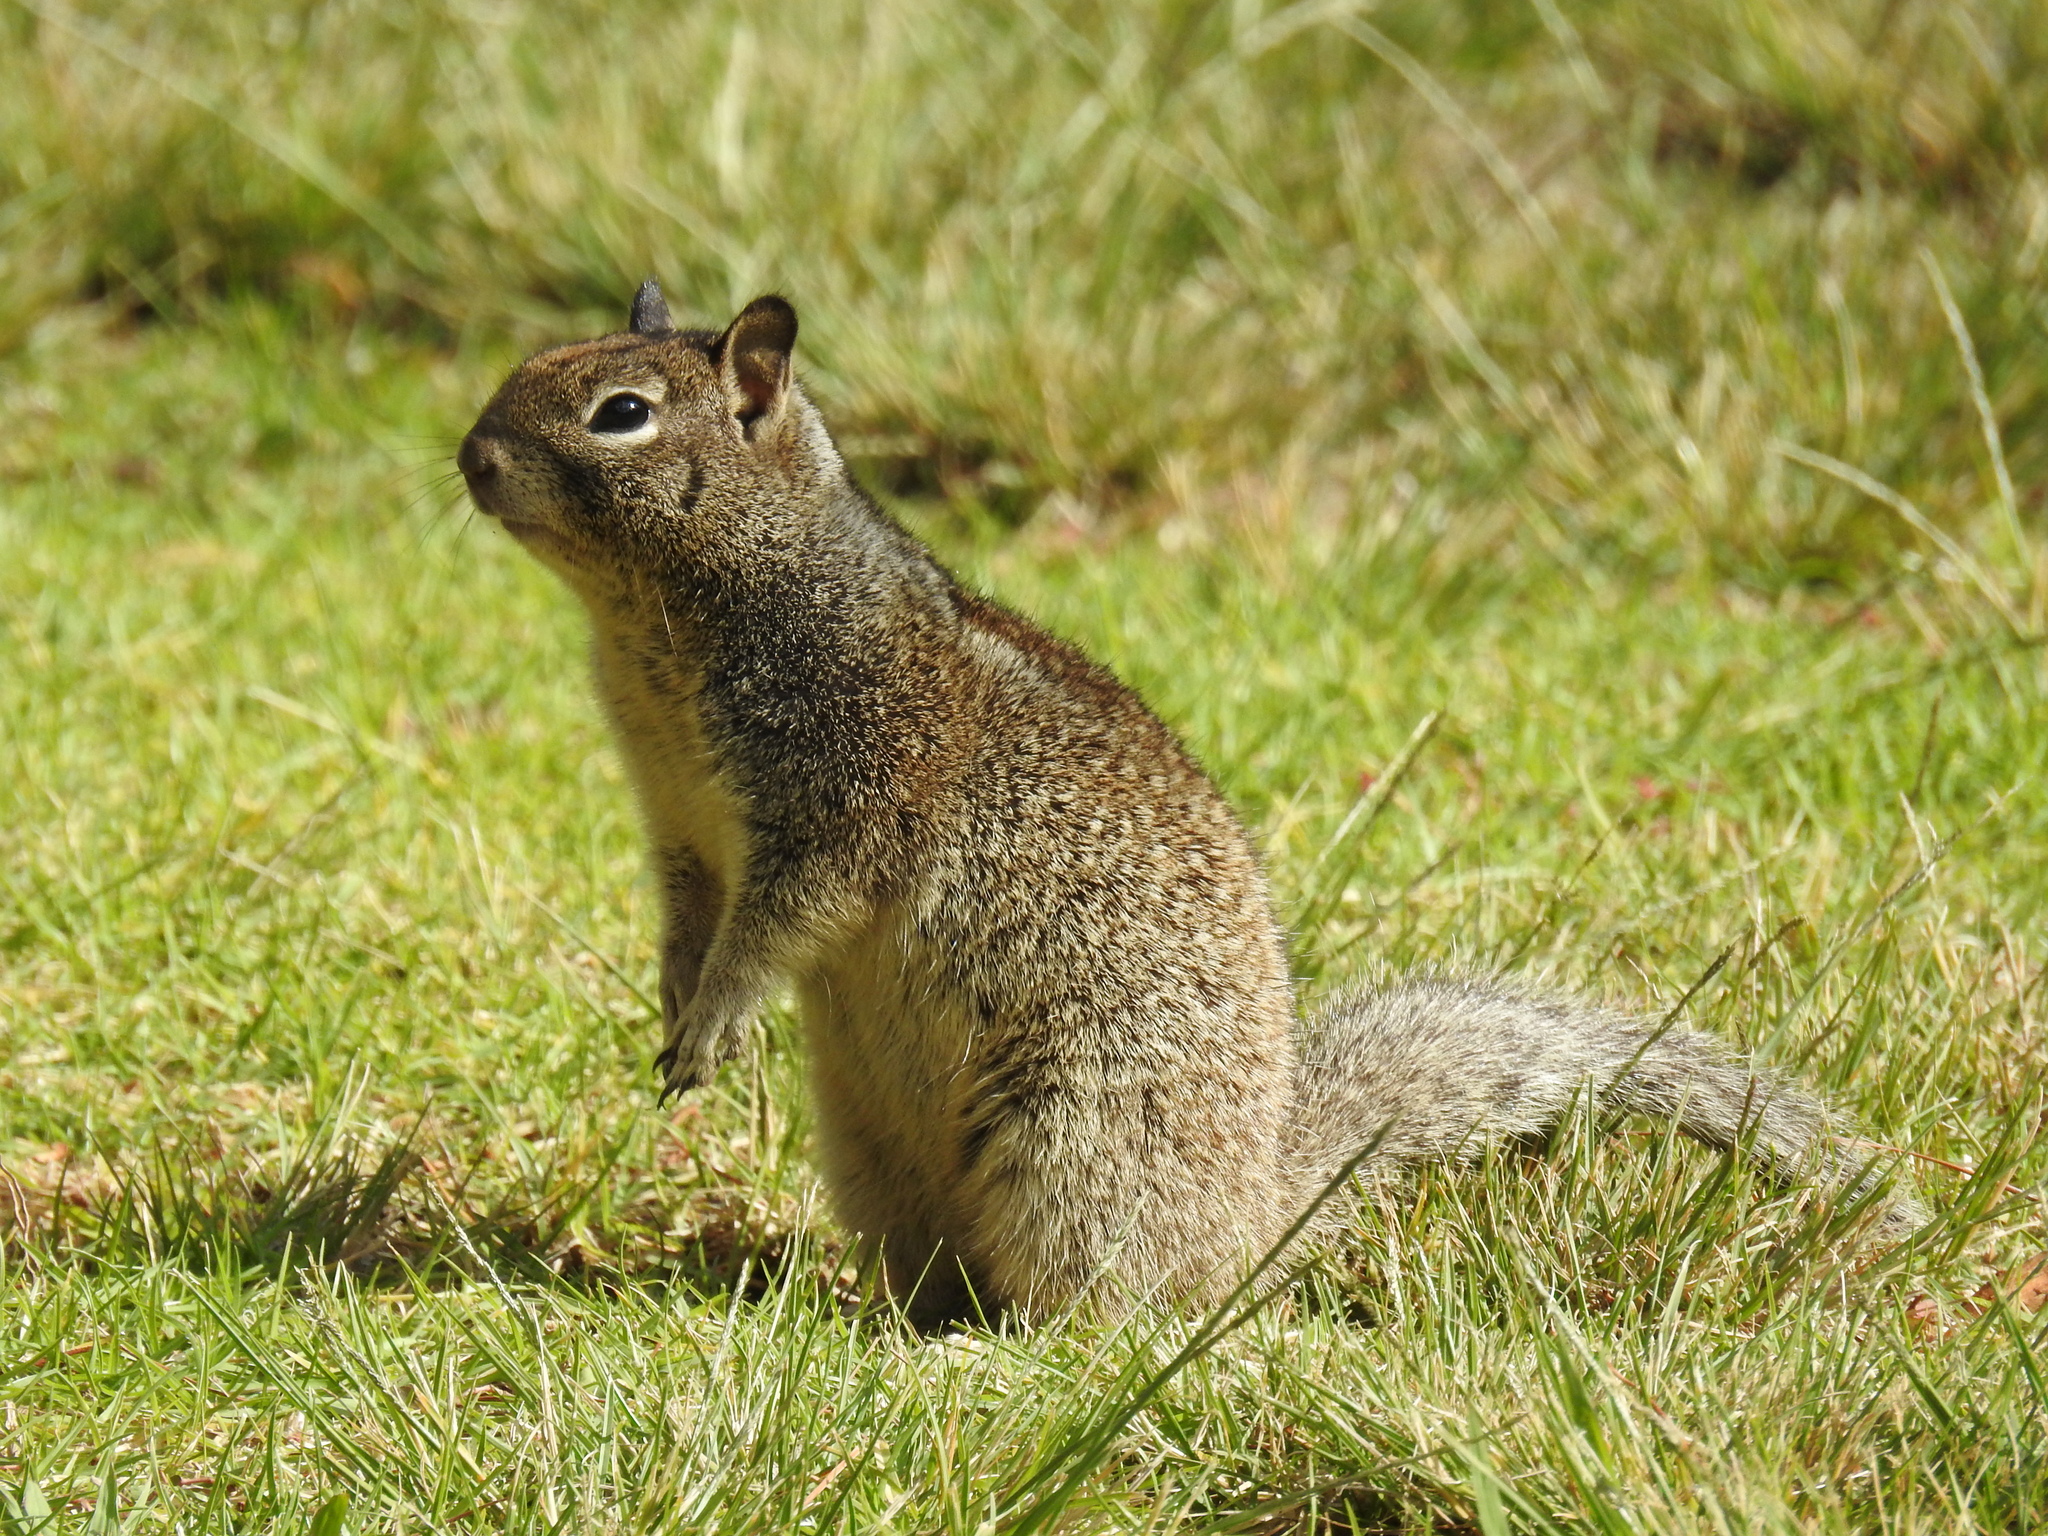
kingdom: Animalia
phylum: Chordata
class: Mammalia
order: Rodentia
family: Sciuridae
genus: Otospermophilus
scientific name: Otospermophilus beecheyi
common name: California ground squirrel
